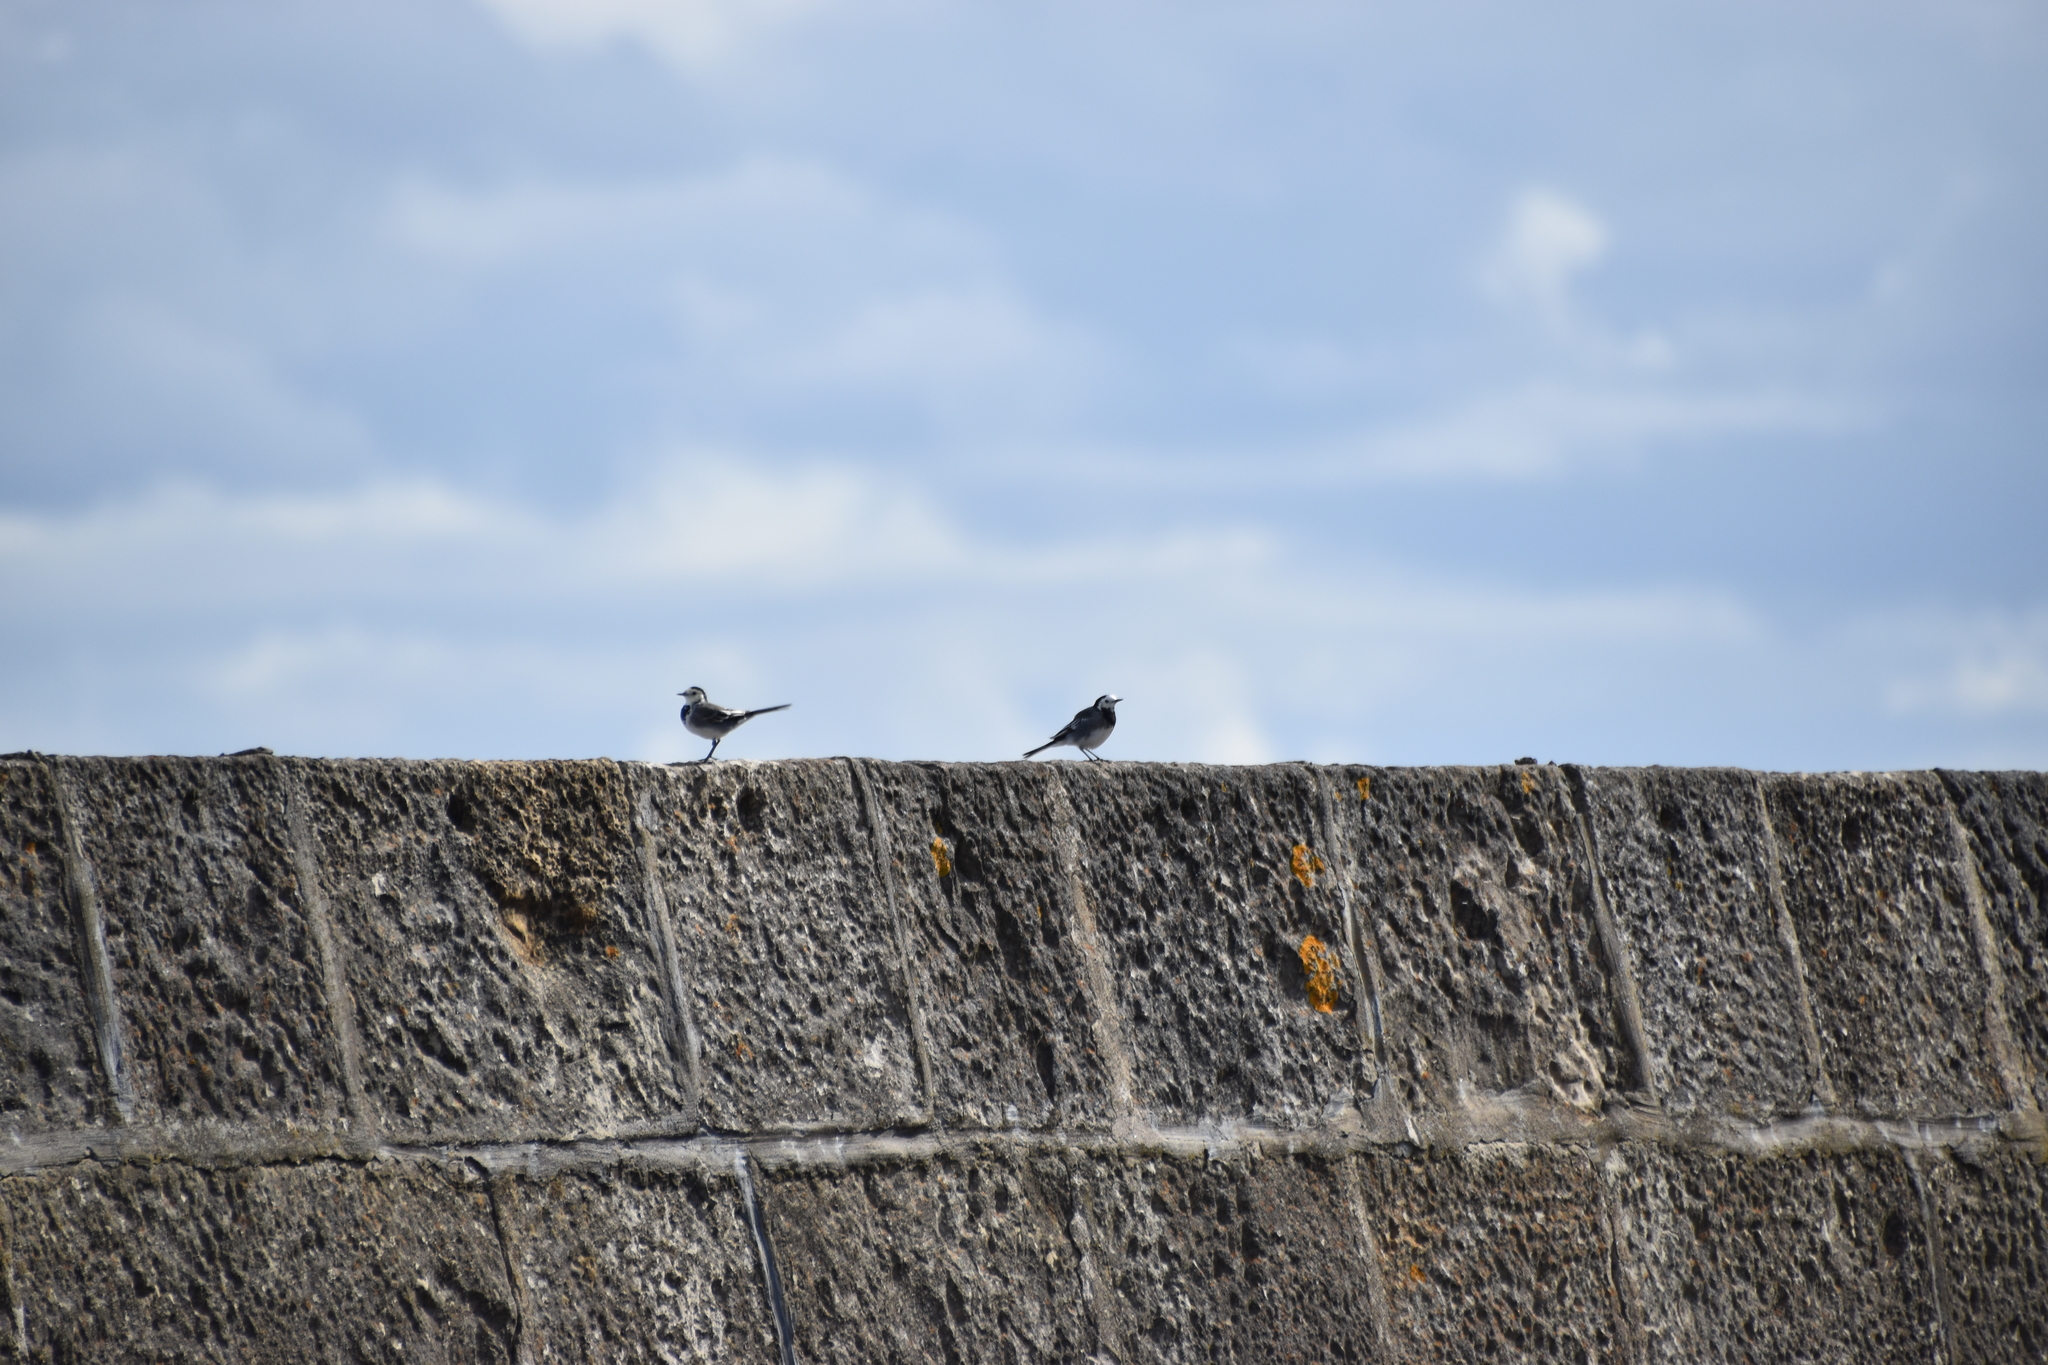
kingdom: Animalia
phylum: Chordata
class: Aves
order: Passeriformes
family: Motacillidae
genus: Motacilla
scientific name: Motacilla alba
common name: White wagtail
